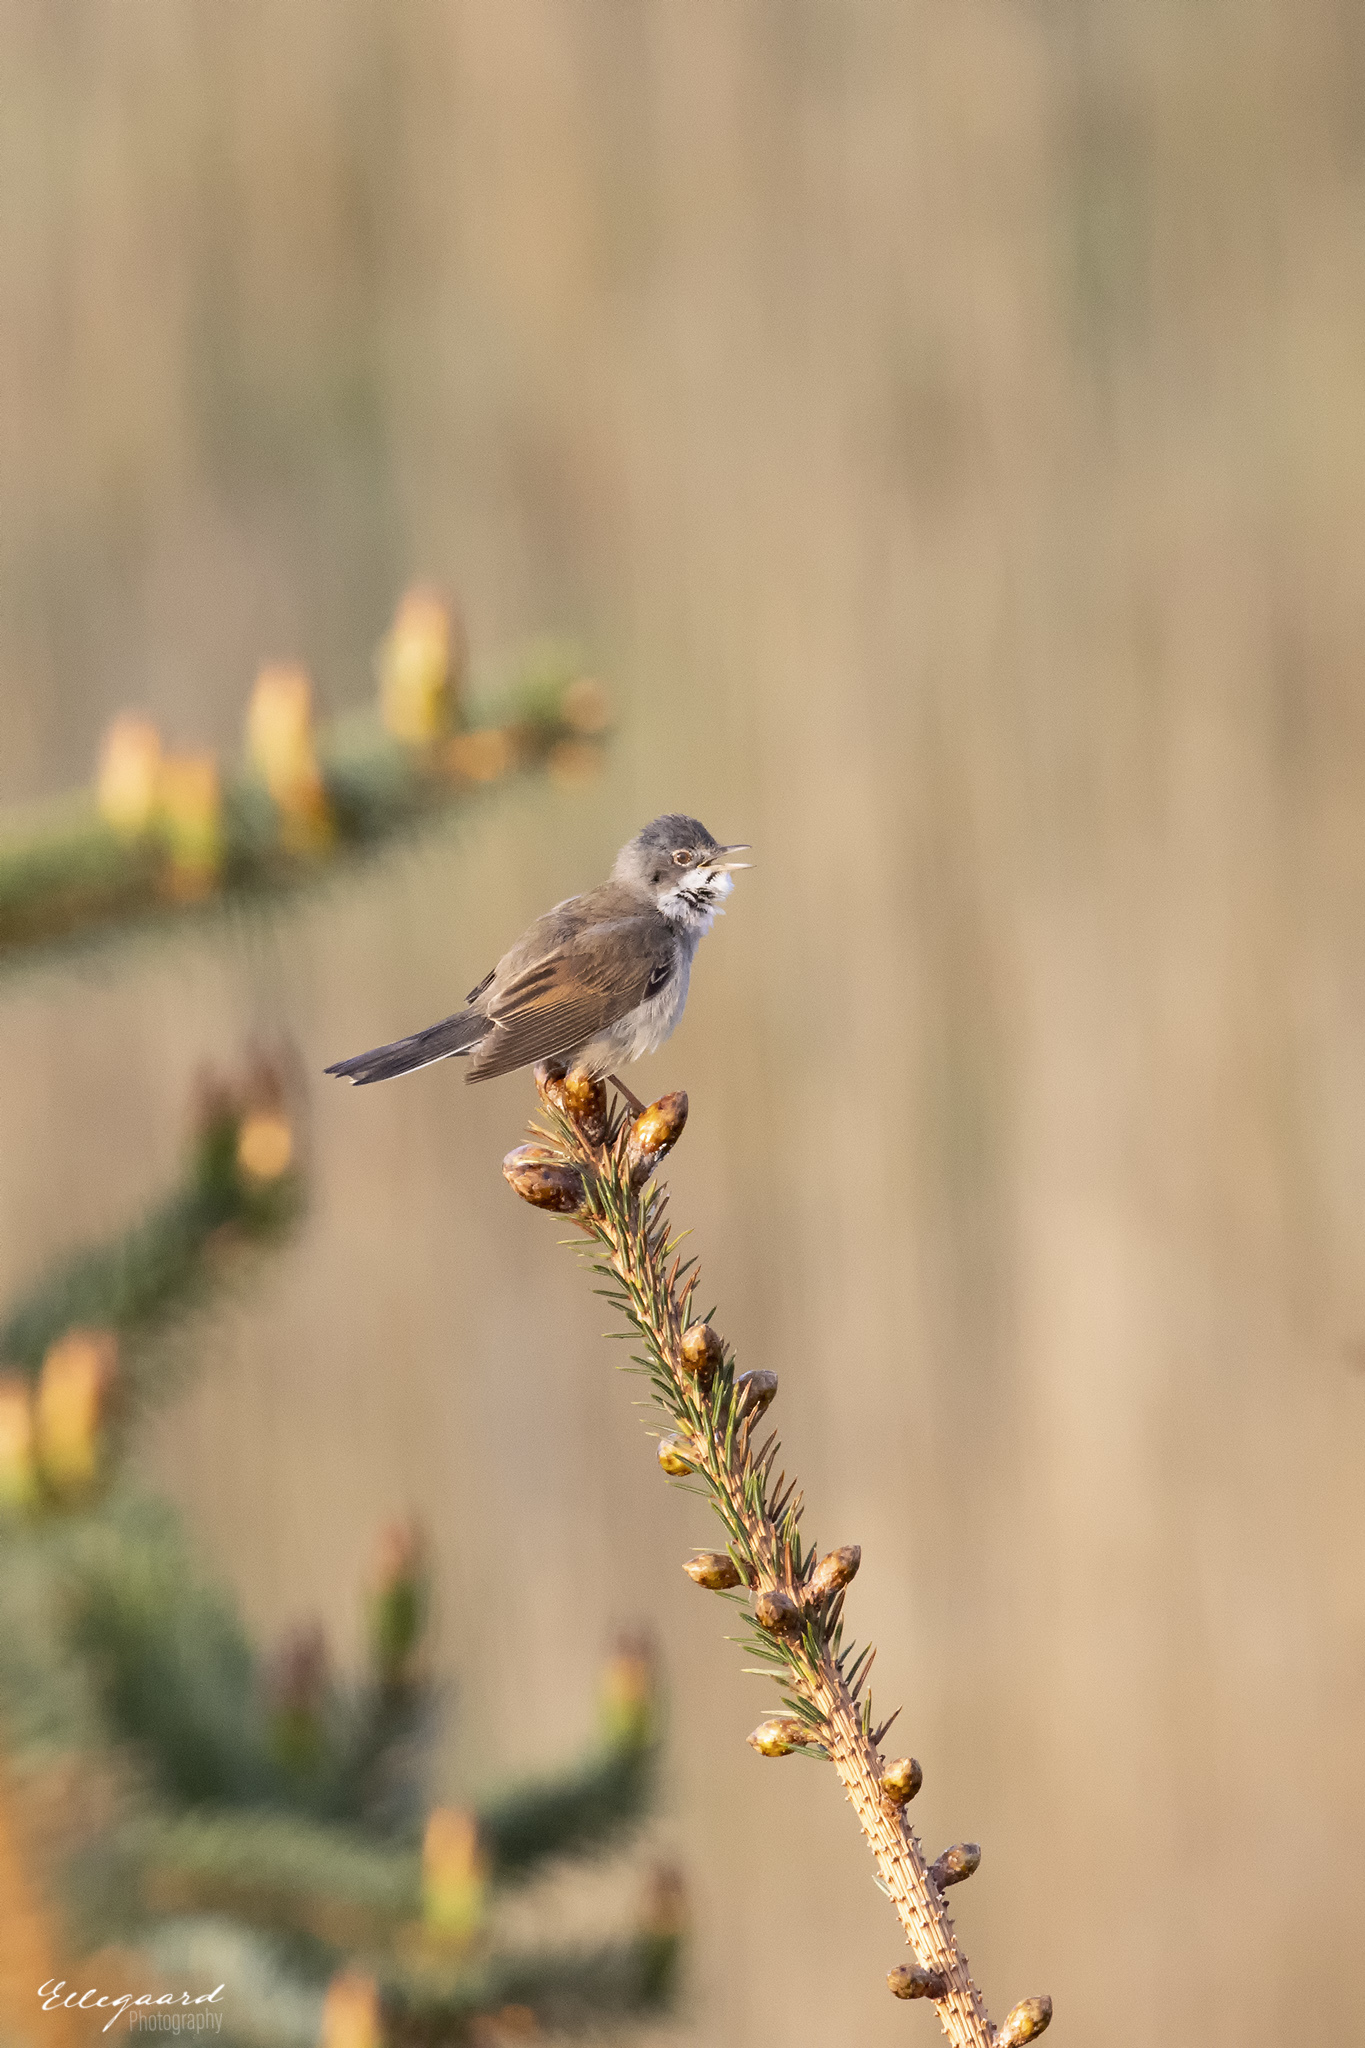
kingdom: Animalia
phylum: Chordata
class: Aves
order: Passeriformes
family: Sylviidae
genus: Sylvia
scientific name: Sylvia communis
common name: Common whitethroat
